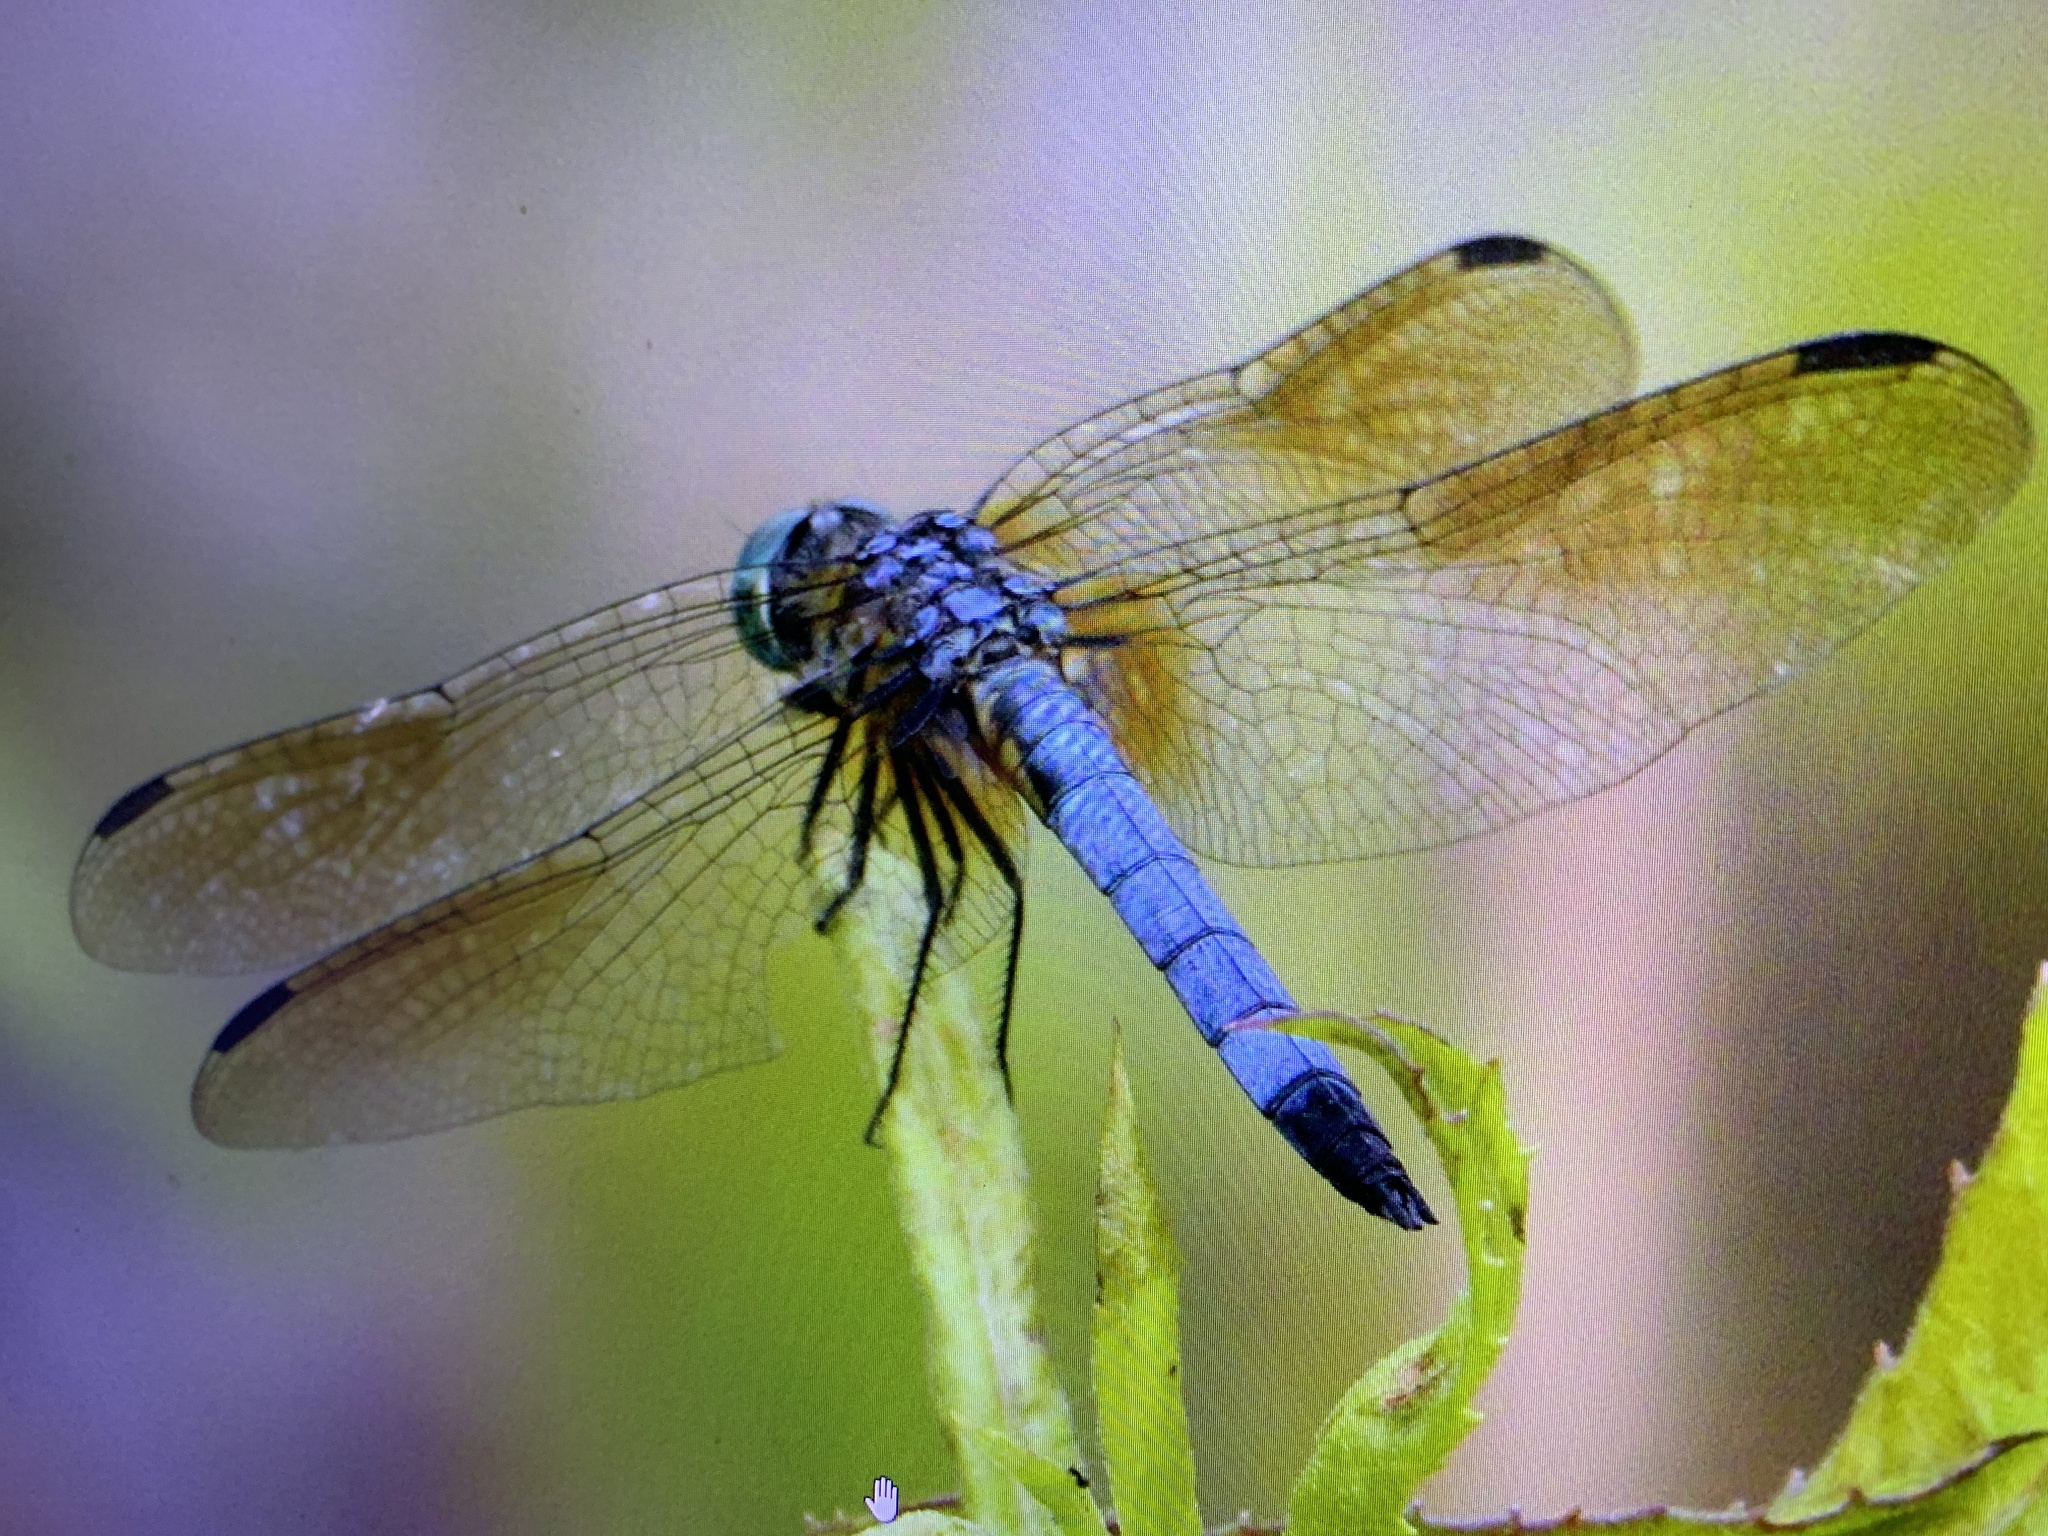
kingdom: Animalia
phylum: Arthropoda
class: Insecta
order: Odonata
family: Libellulidae
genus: Pachydiplax
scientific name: Pachydiplax longipennis
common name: Blue dasher
